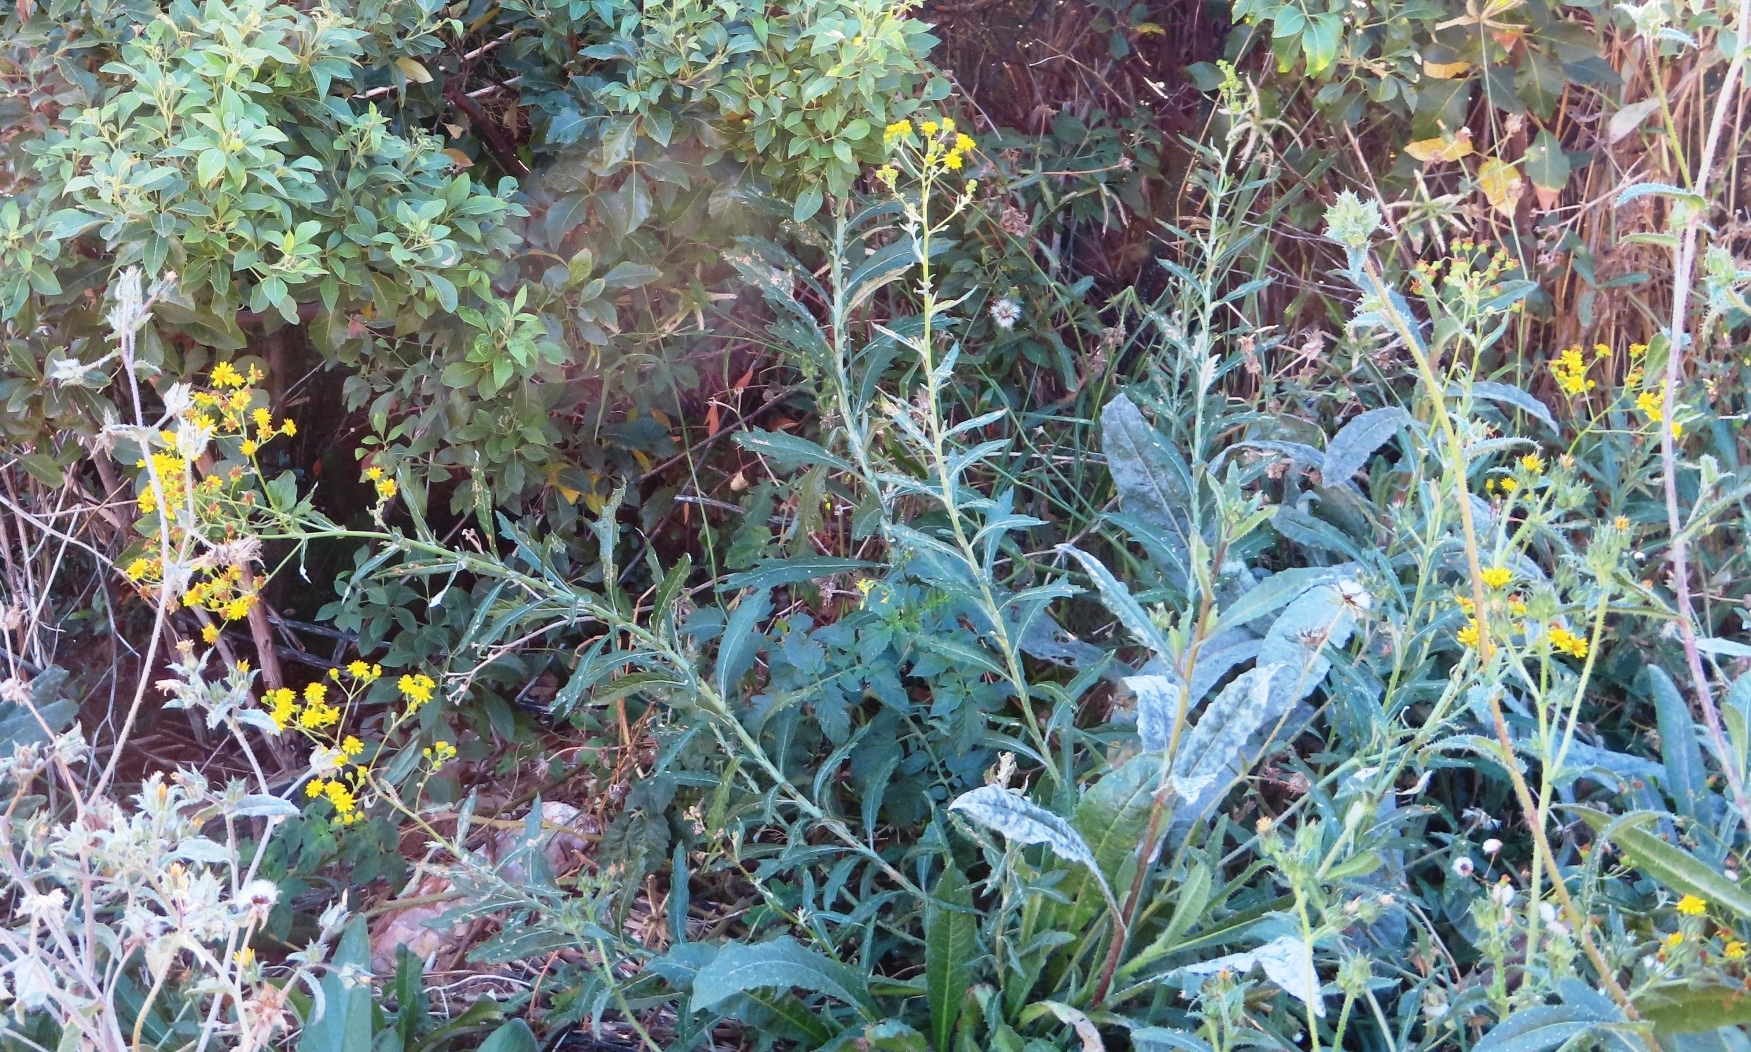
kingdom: Plantae
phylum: Tracheophyta
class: Magnoliopsida
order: Asterales
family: Asteraceae
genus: Senecio
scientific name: Senecio pterophorus
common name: Shoddy ragwort
